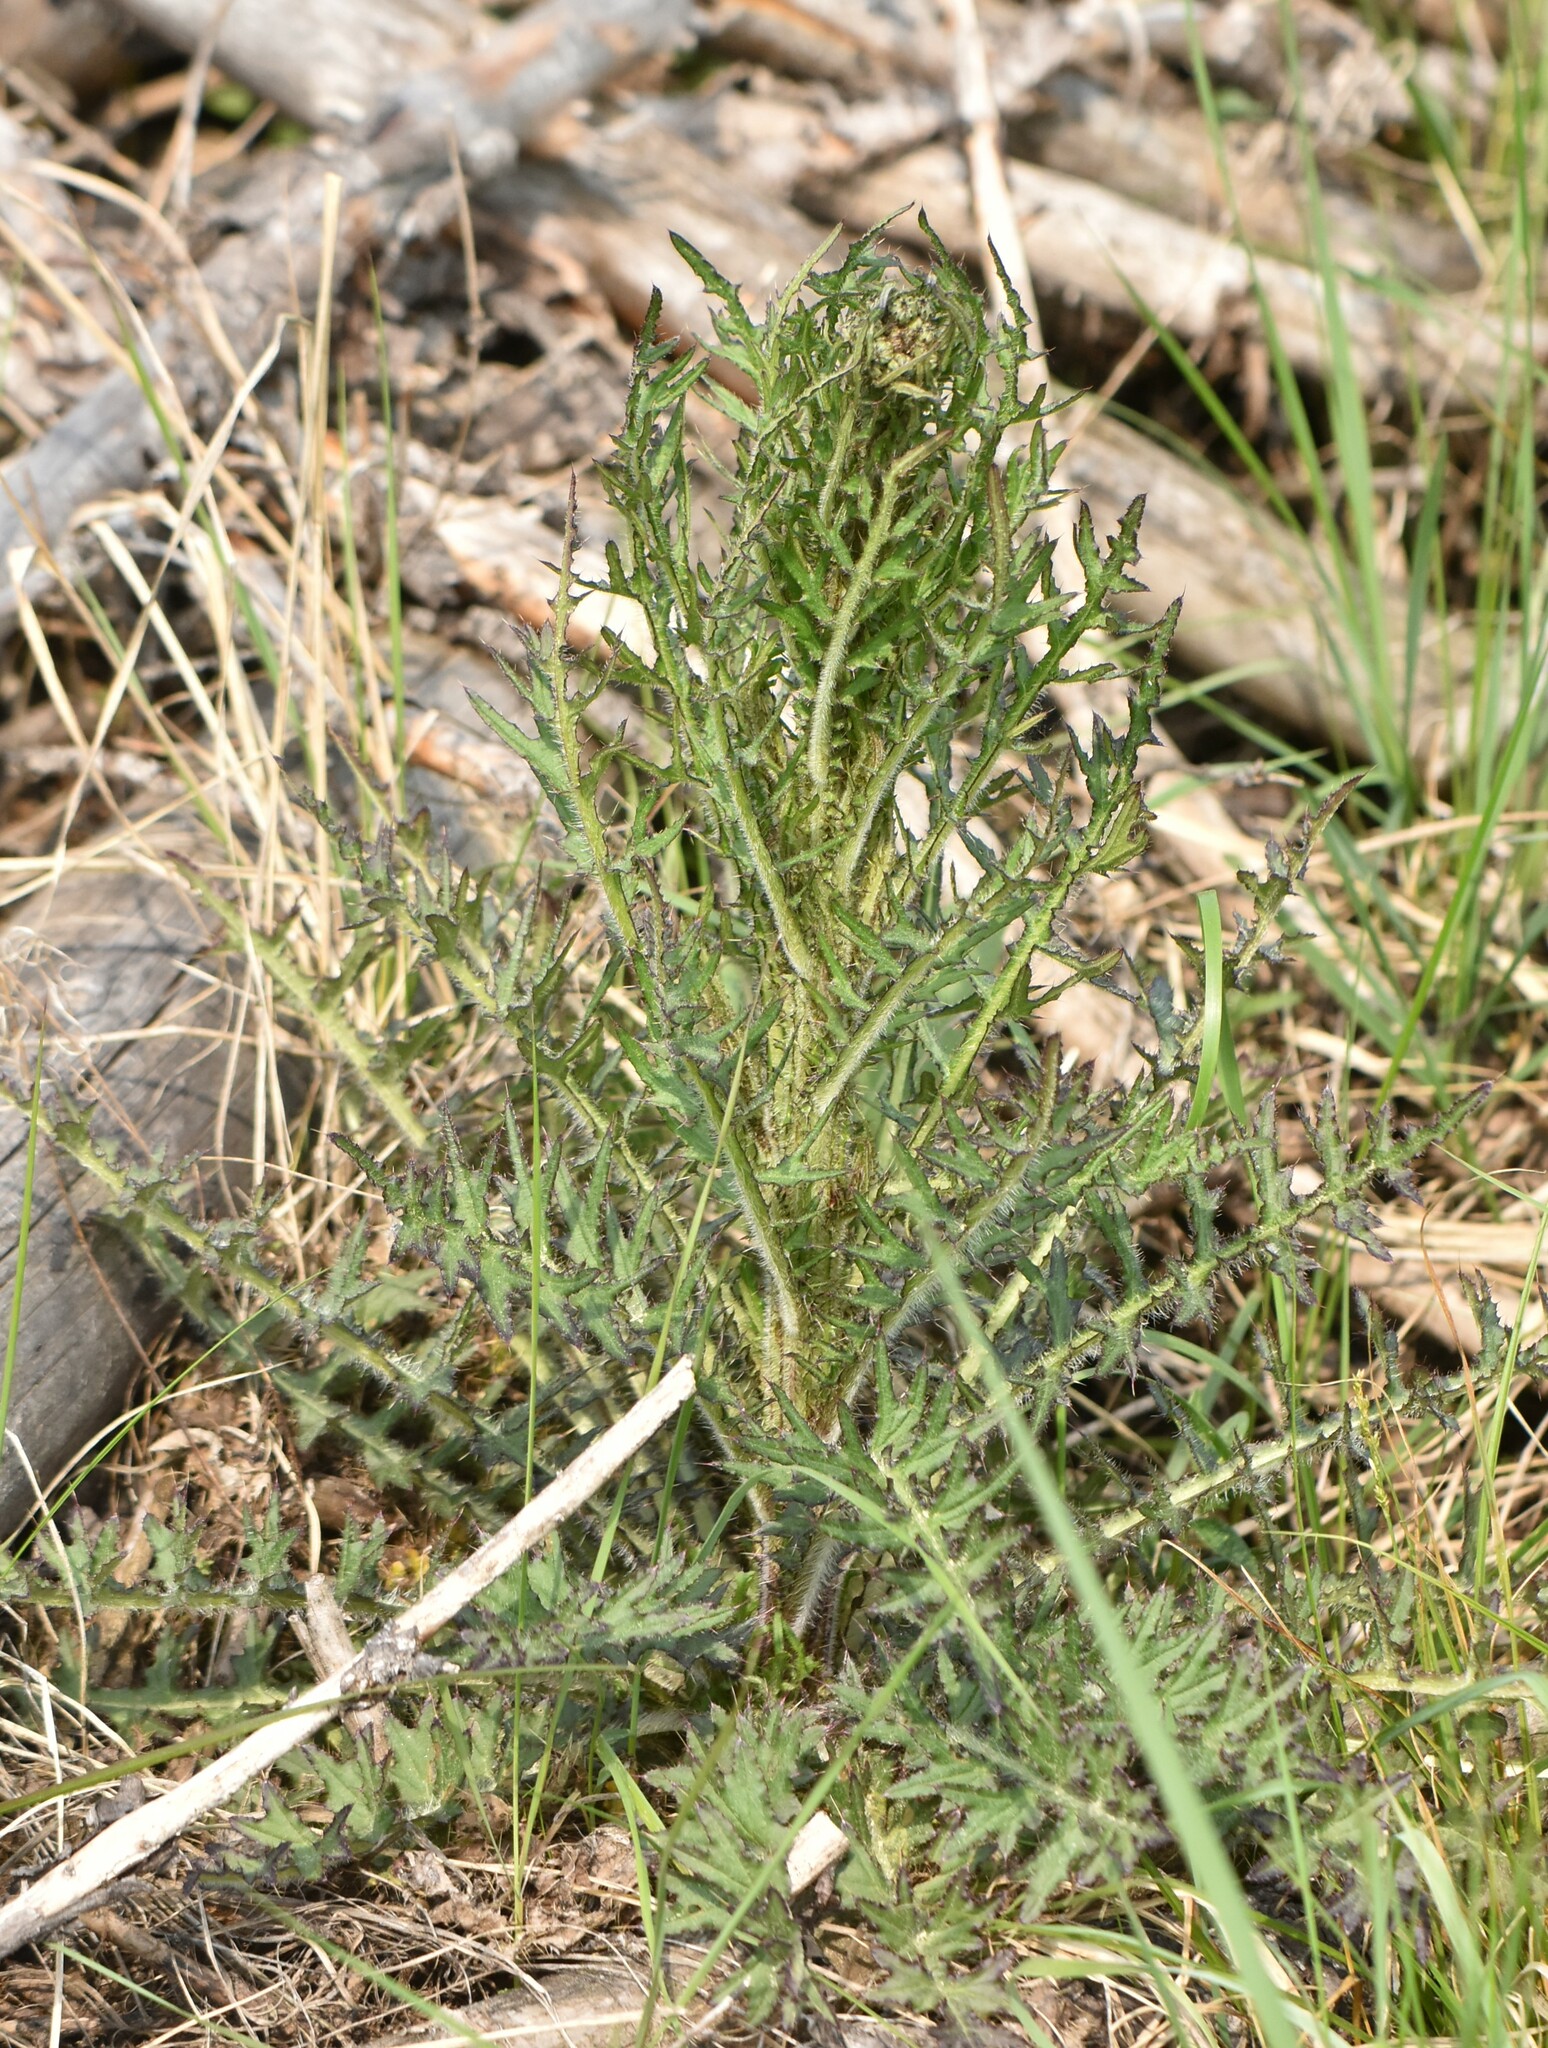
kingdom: Plantae
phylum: Tracheophyta
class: Magnoliopsida
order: Asterales
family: Asteraceae
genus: Cirsium
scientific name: Cirsium palustre
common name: Marsh thistle
